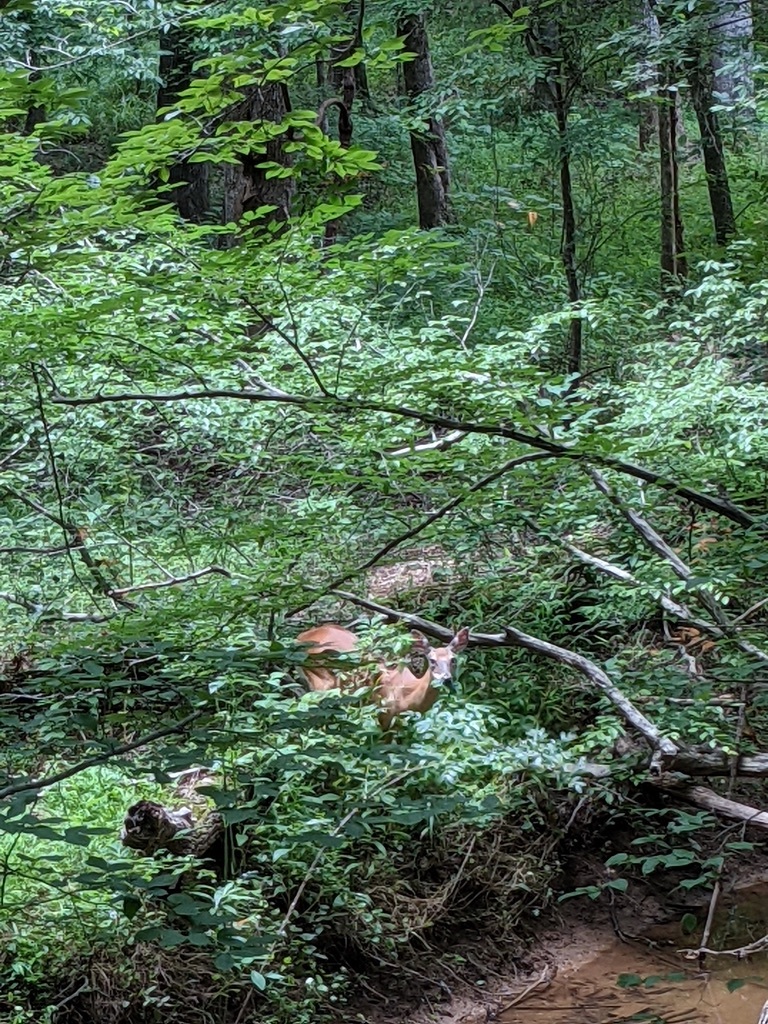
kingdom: Animalia
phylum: Chordata
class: Mammalia
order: Artiodactyla
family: Cervidae
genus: Odocoileus
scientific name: Odocoileus virginianus
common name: White-tailed deer
